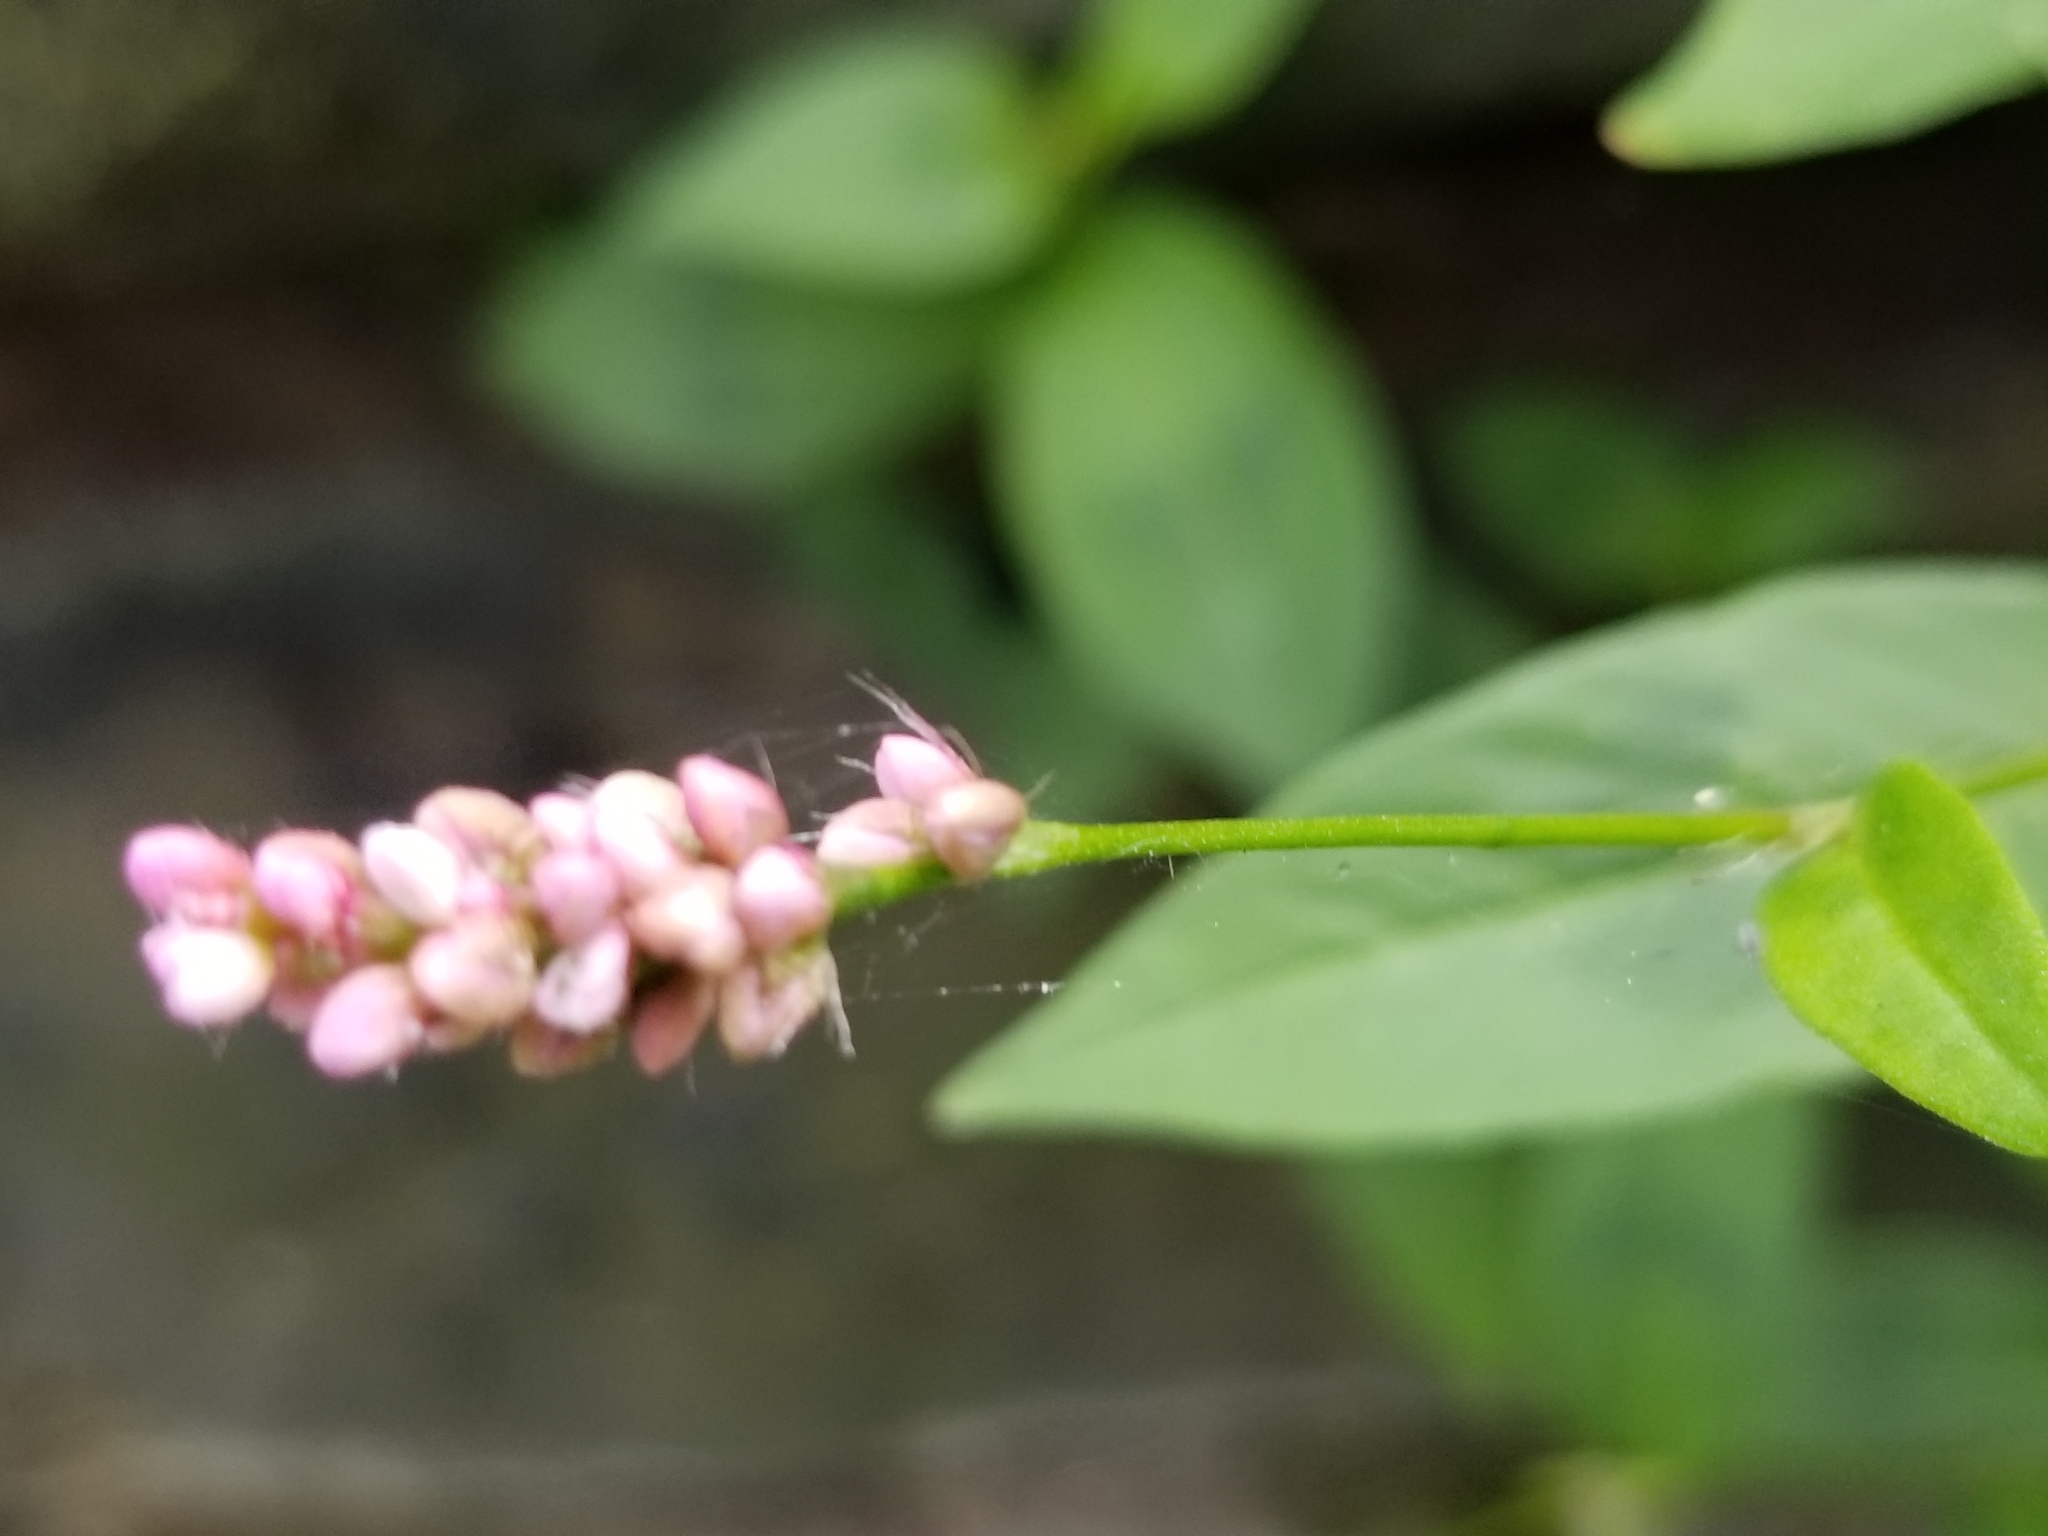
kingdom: Plantae
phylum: Tracheophyta
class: Magnoliopsida
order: Caryophyllales
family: Polygonaceae
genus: Persicaria
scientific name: Persicaria longiseta
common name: Bristly lady's-thumb
